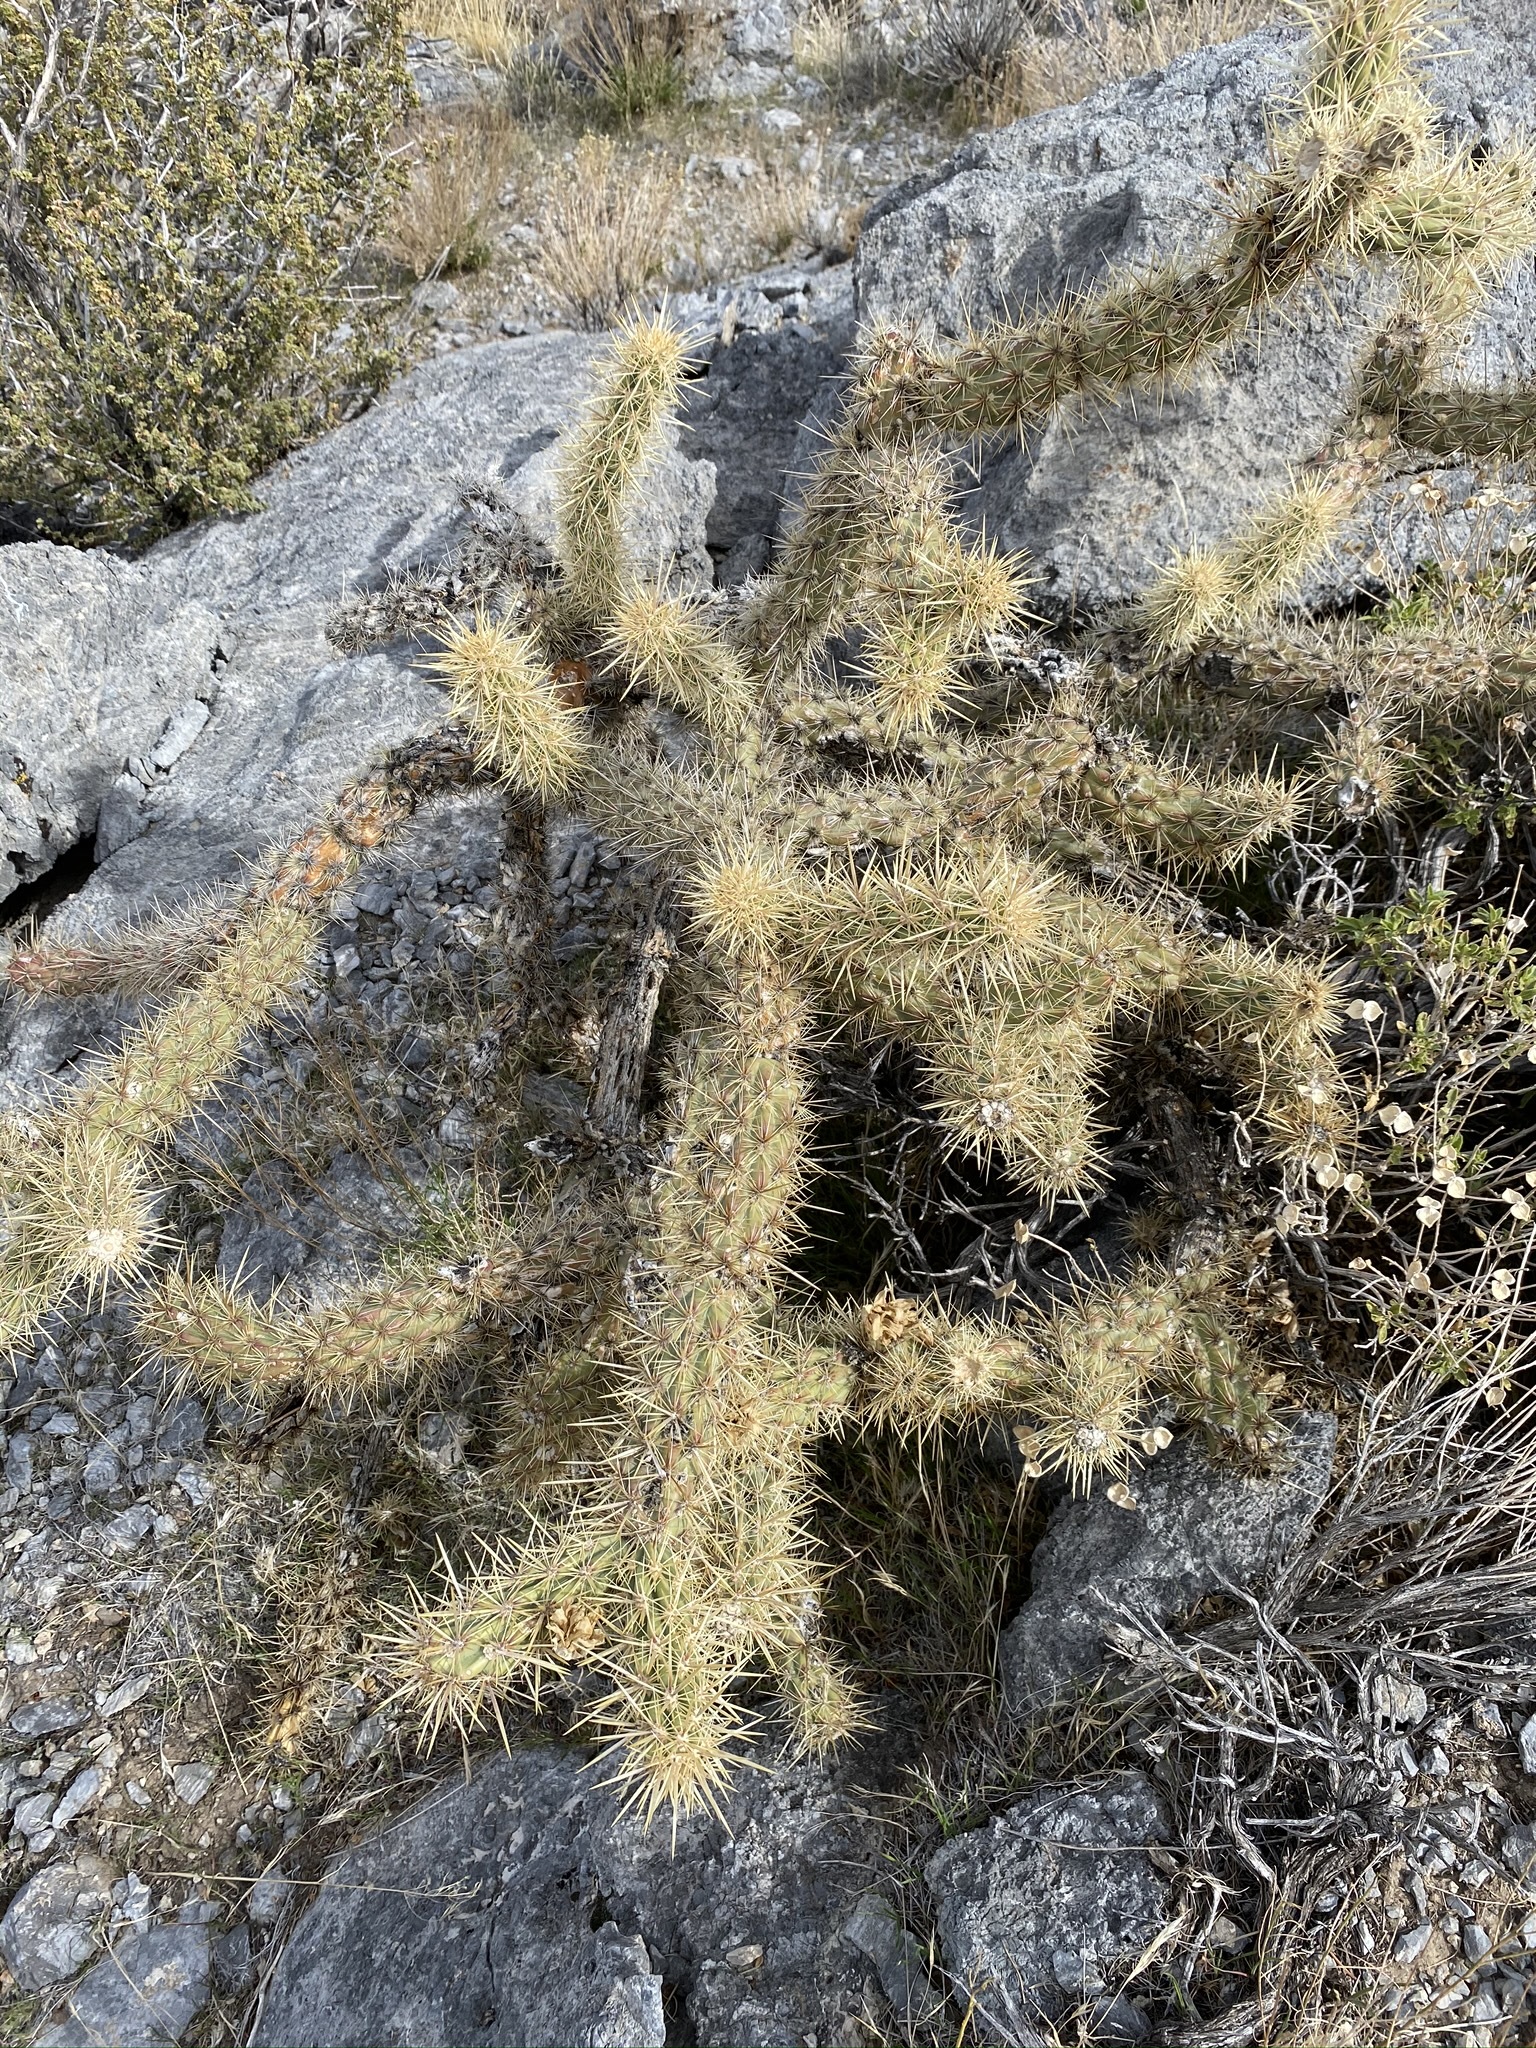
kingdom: Plantae
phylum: Tracheophyta
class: Magnoliopsida
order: Caryophyllales
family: Cactaceae
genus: Cylindropuntia
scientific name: Cylindropuntia acanthocarpa
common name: Buckhorn cholla
